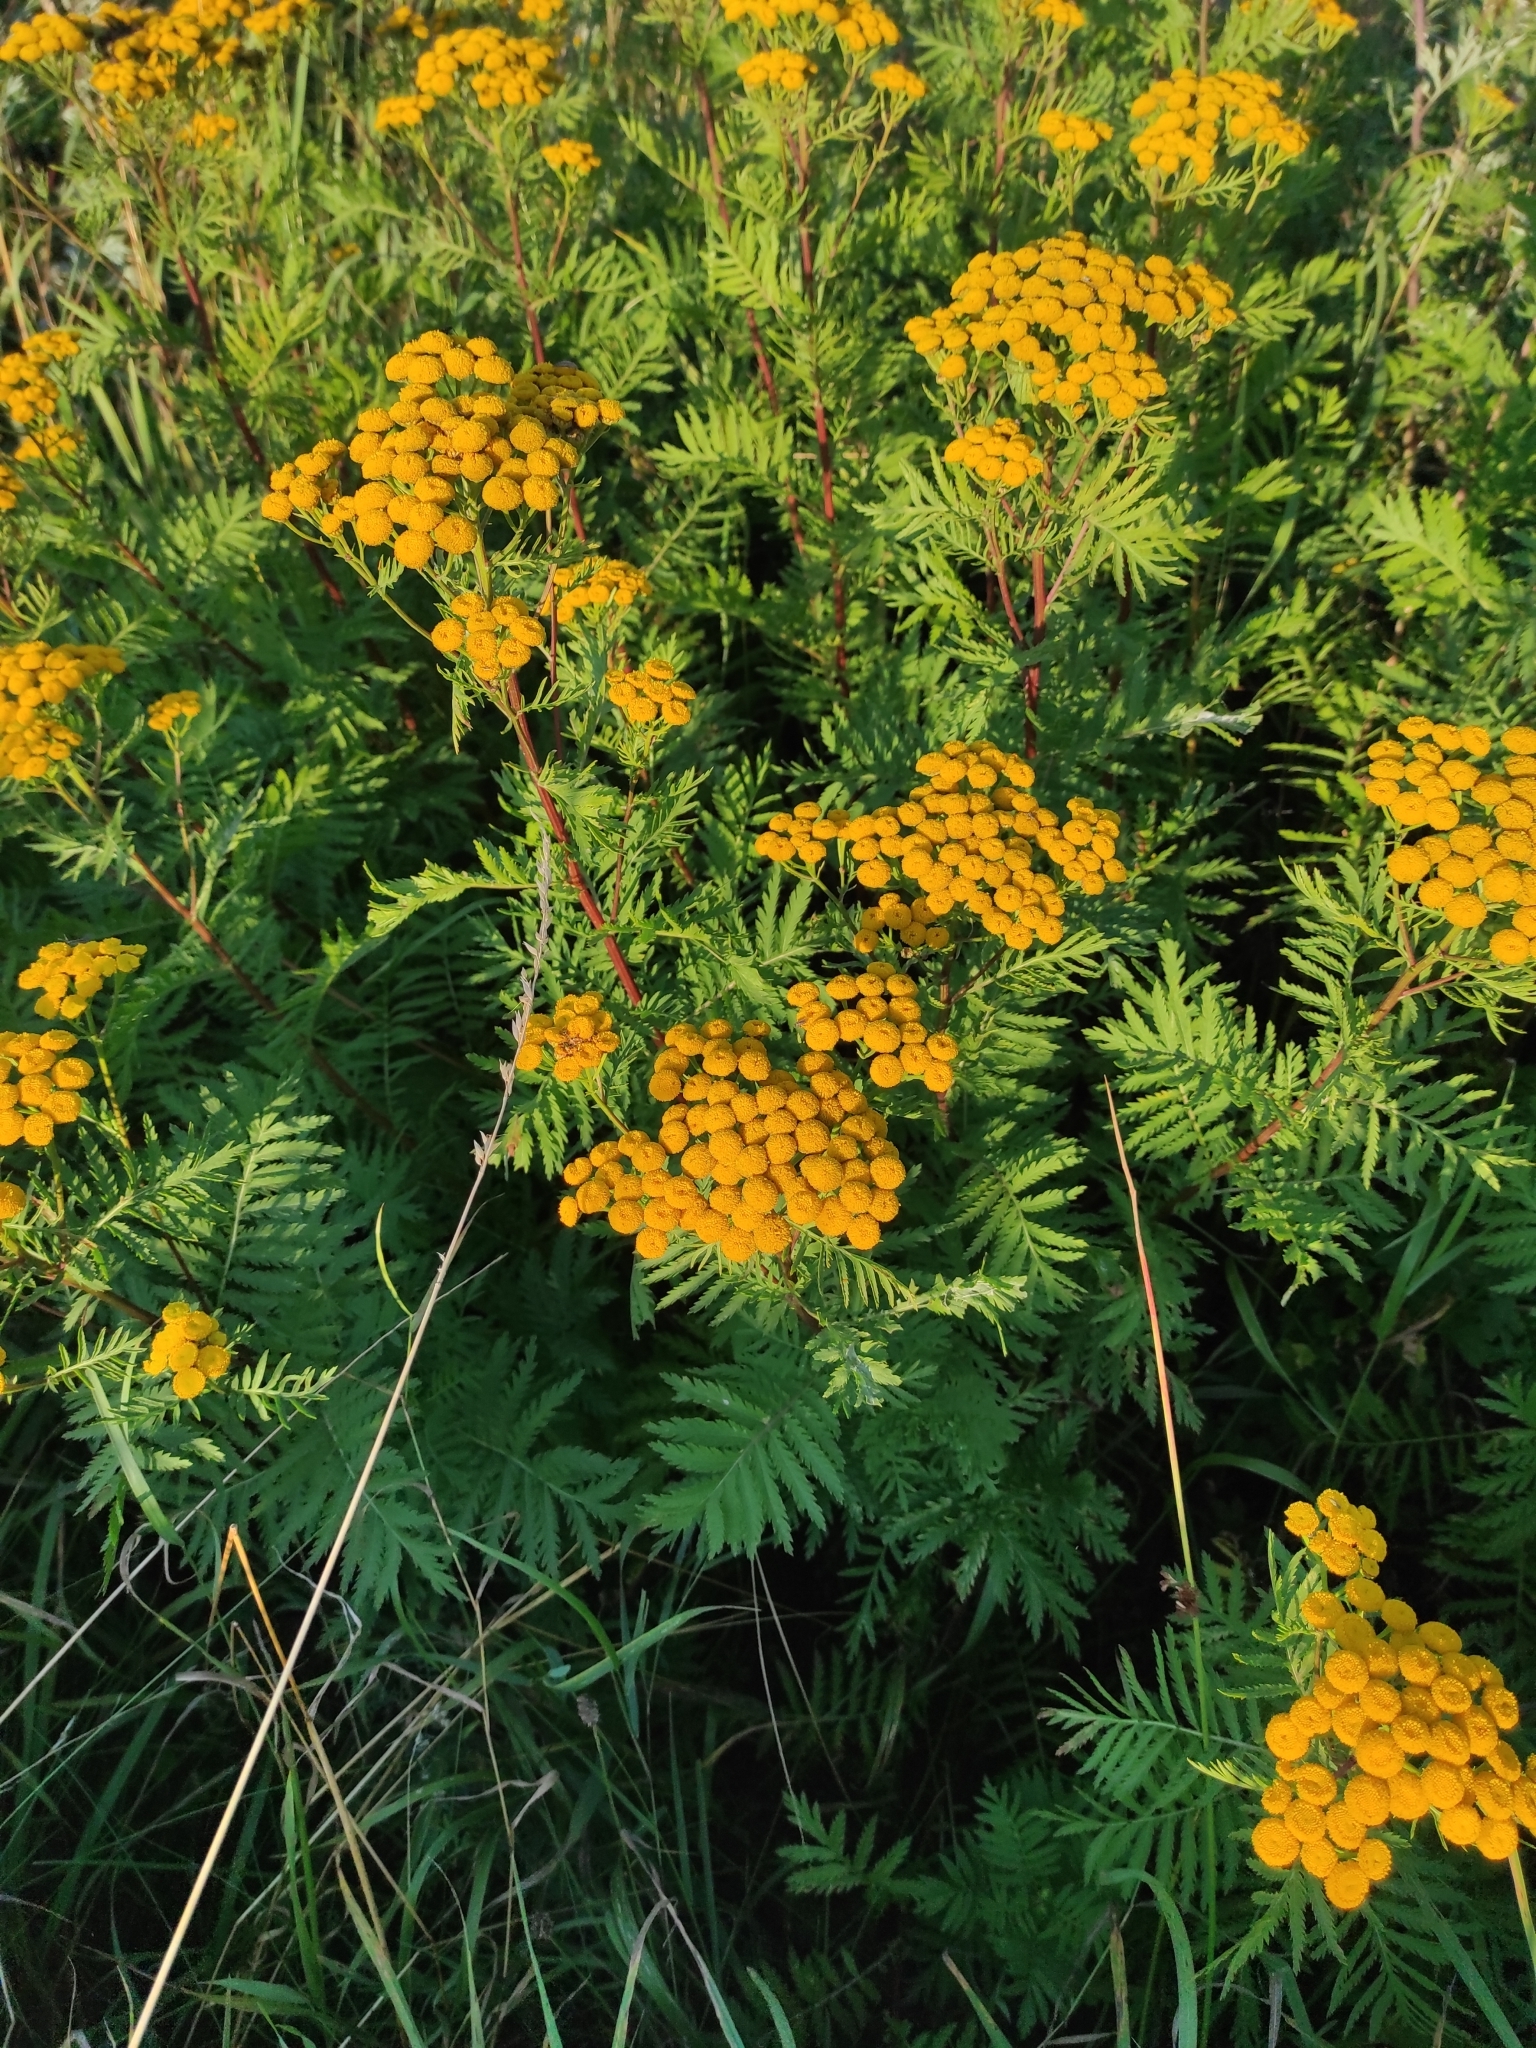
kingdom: Plantae
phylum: Tracheophyta
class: Magnoliopsida
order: Asterales
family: Asteraceae
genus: Tanacetum
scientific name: Tanacetum vulgare
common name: Common tansy
